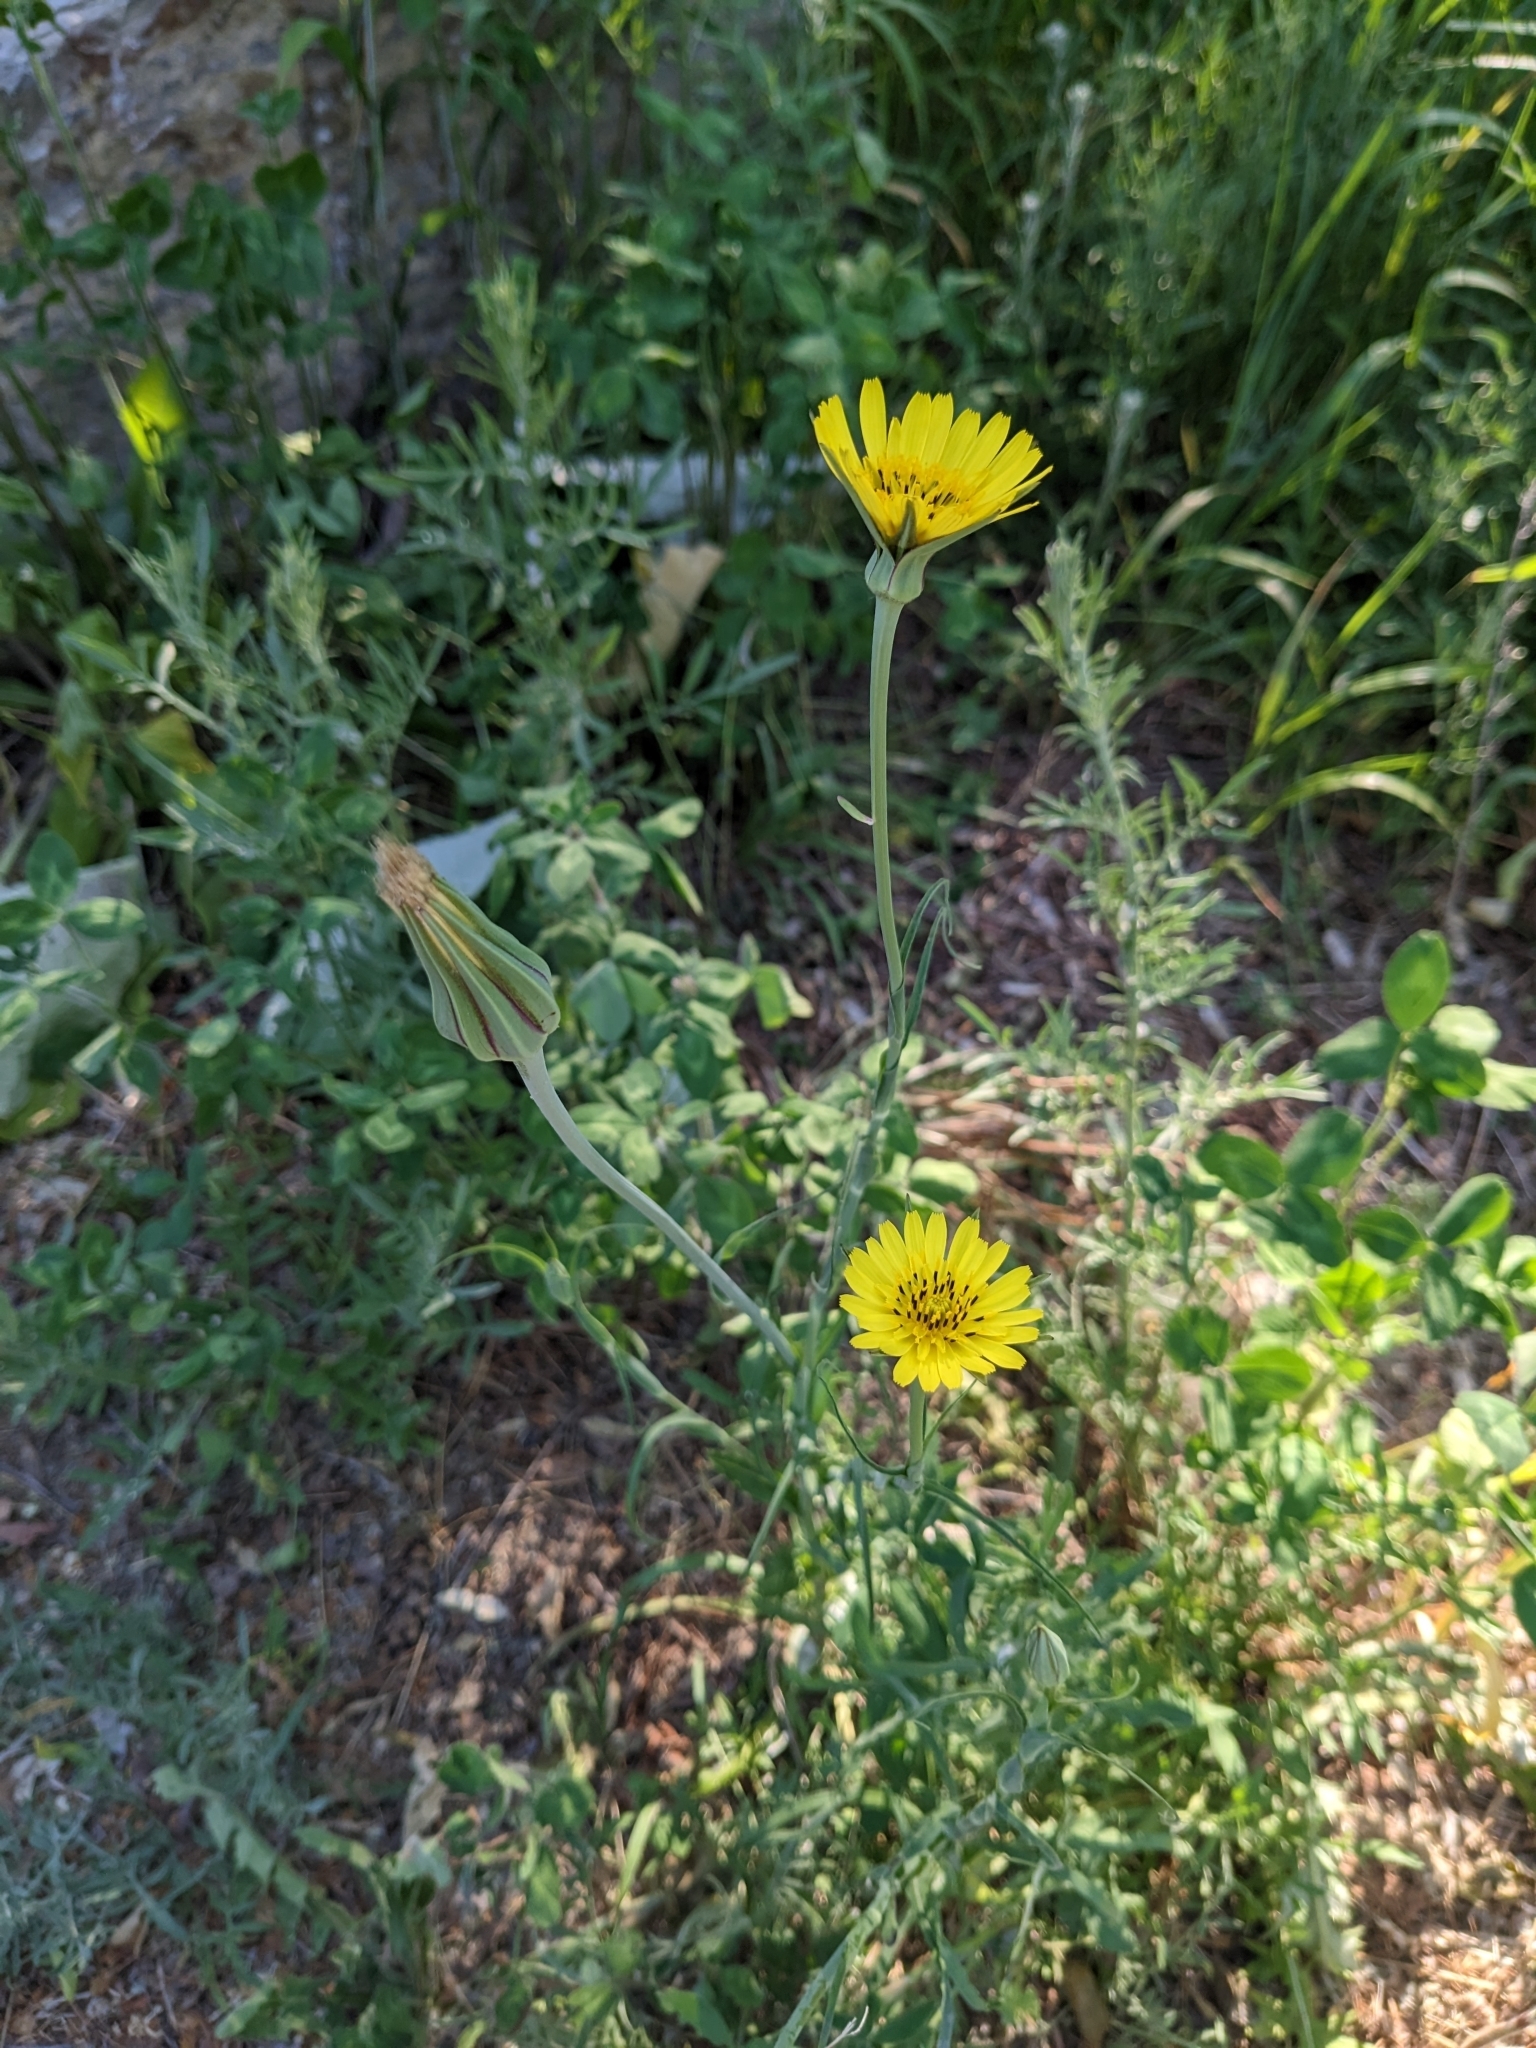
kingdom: Plantae
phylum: Tracheophyta
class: Magnoliopsida
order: Asterales
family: Asteraceae
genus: Tragopogon
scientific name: Tragopogon pratensis
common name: Goat's-beard
